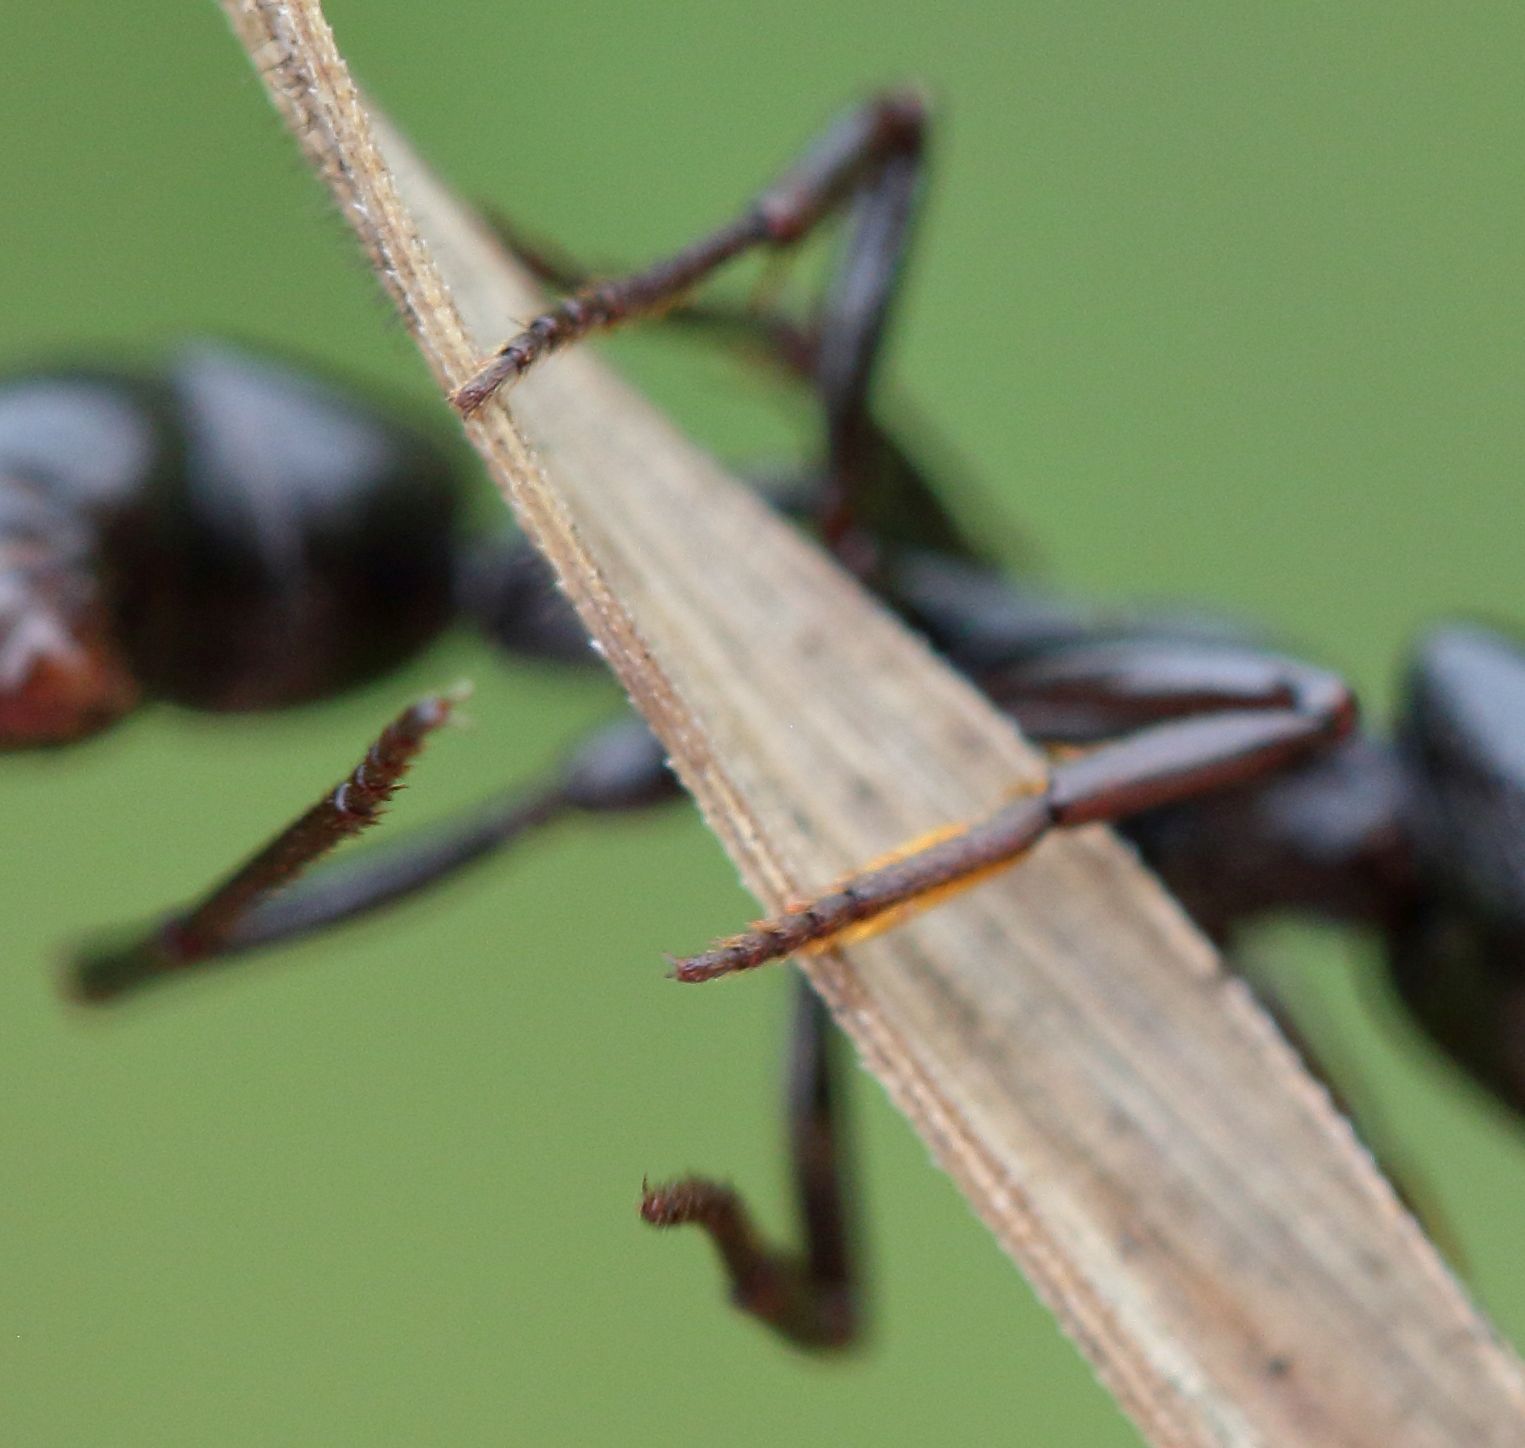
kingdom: Animalia
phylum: Arthropoda
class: Insecta
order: Hymenoptera
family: Formicidae
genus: Plectroctena
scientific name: Plectroctena mandibularis
